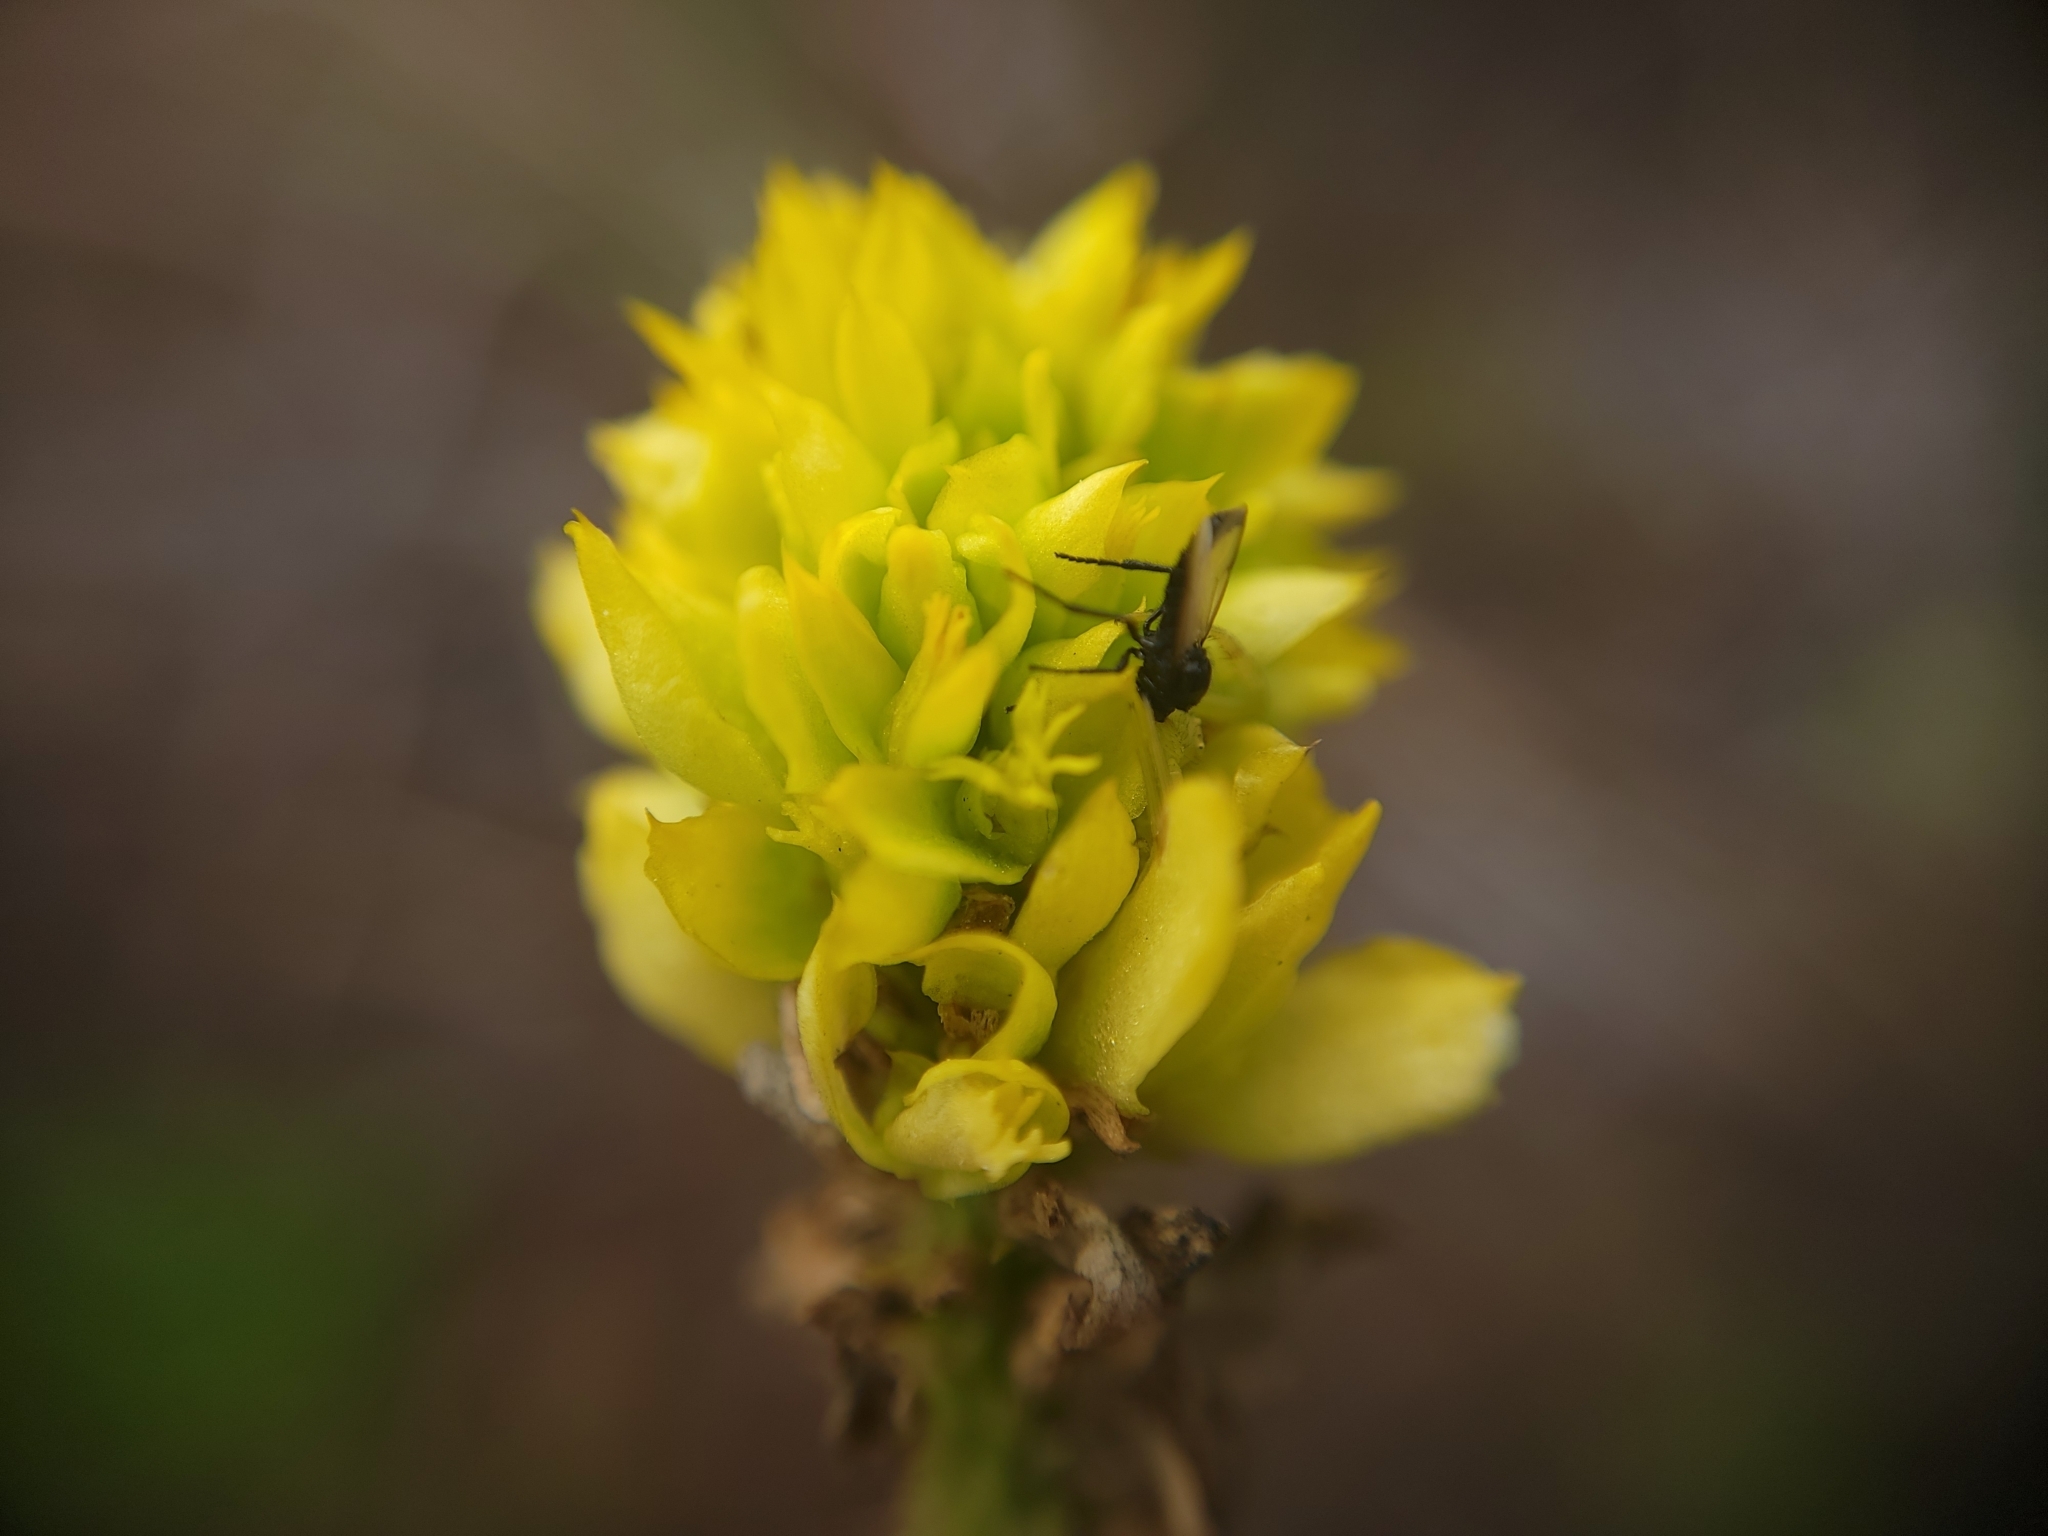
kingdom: Animalia
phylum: Arthropoda
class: Insecta
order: Diptera
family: Bibionidae
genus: Dilophus
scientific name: Dilophus
